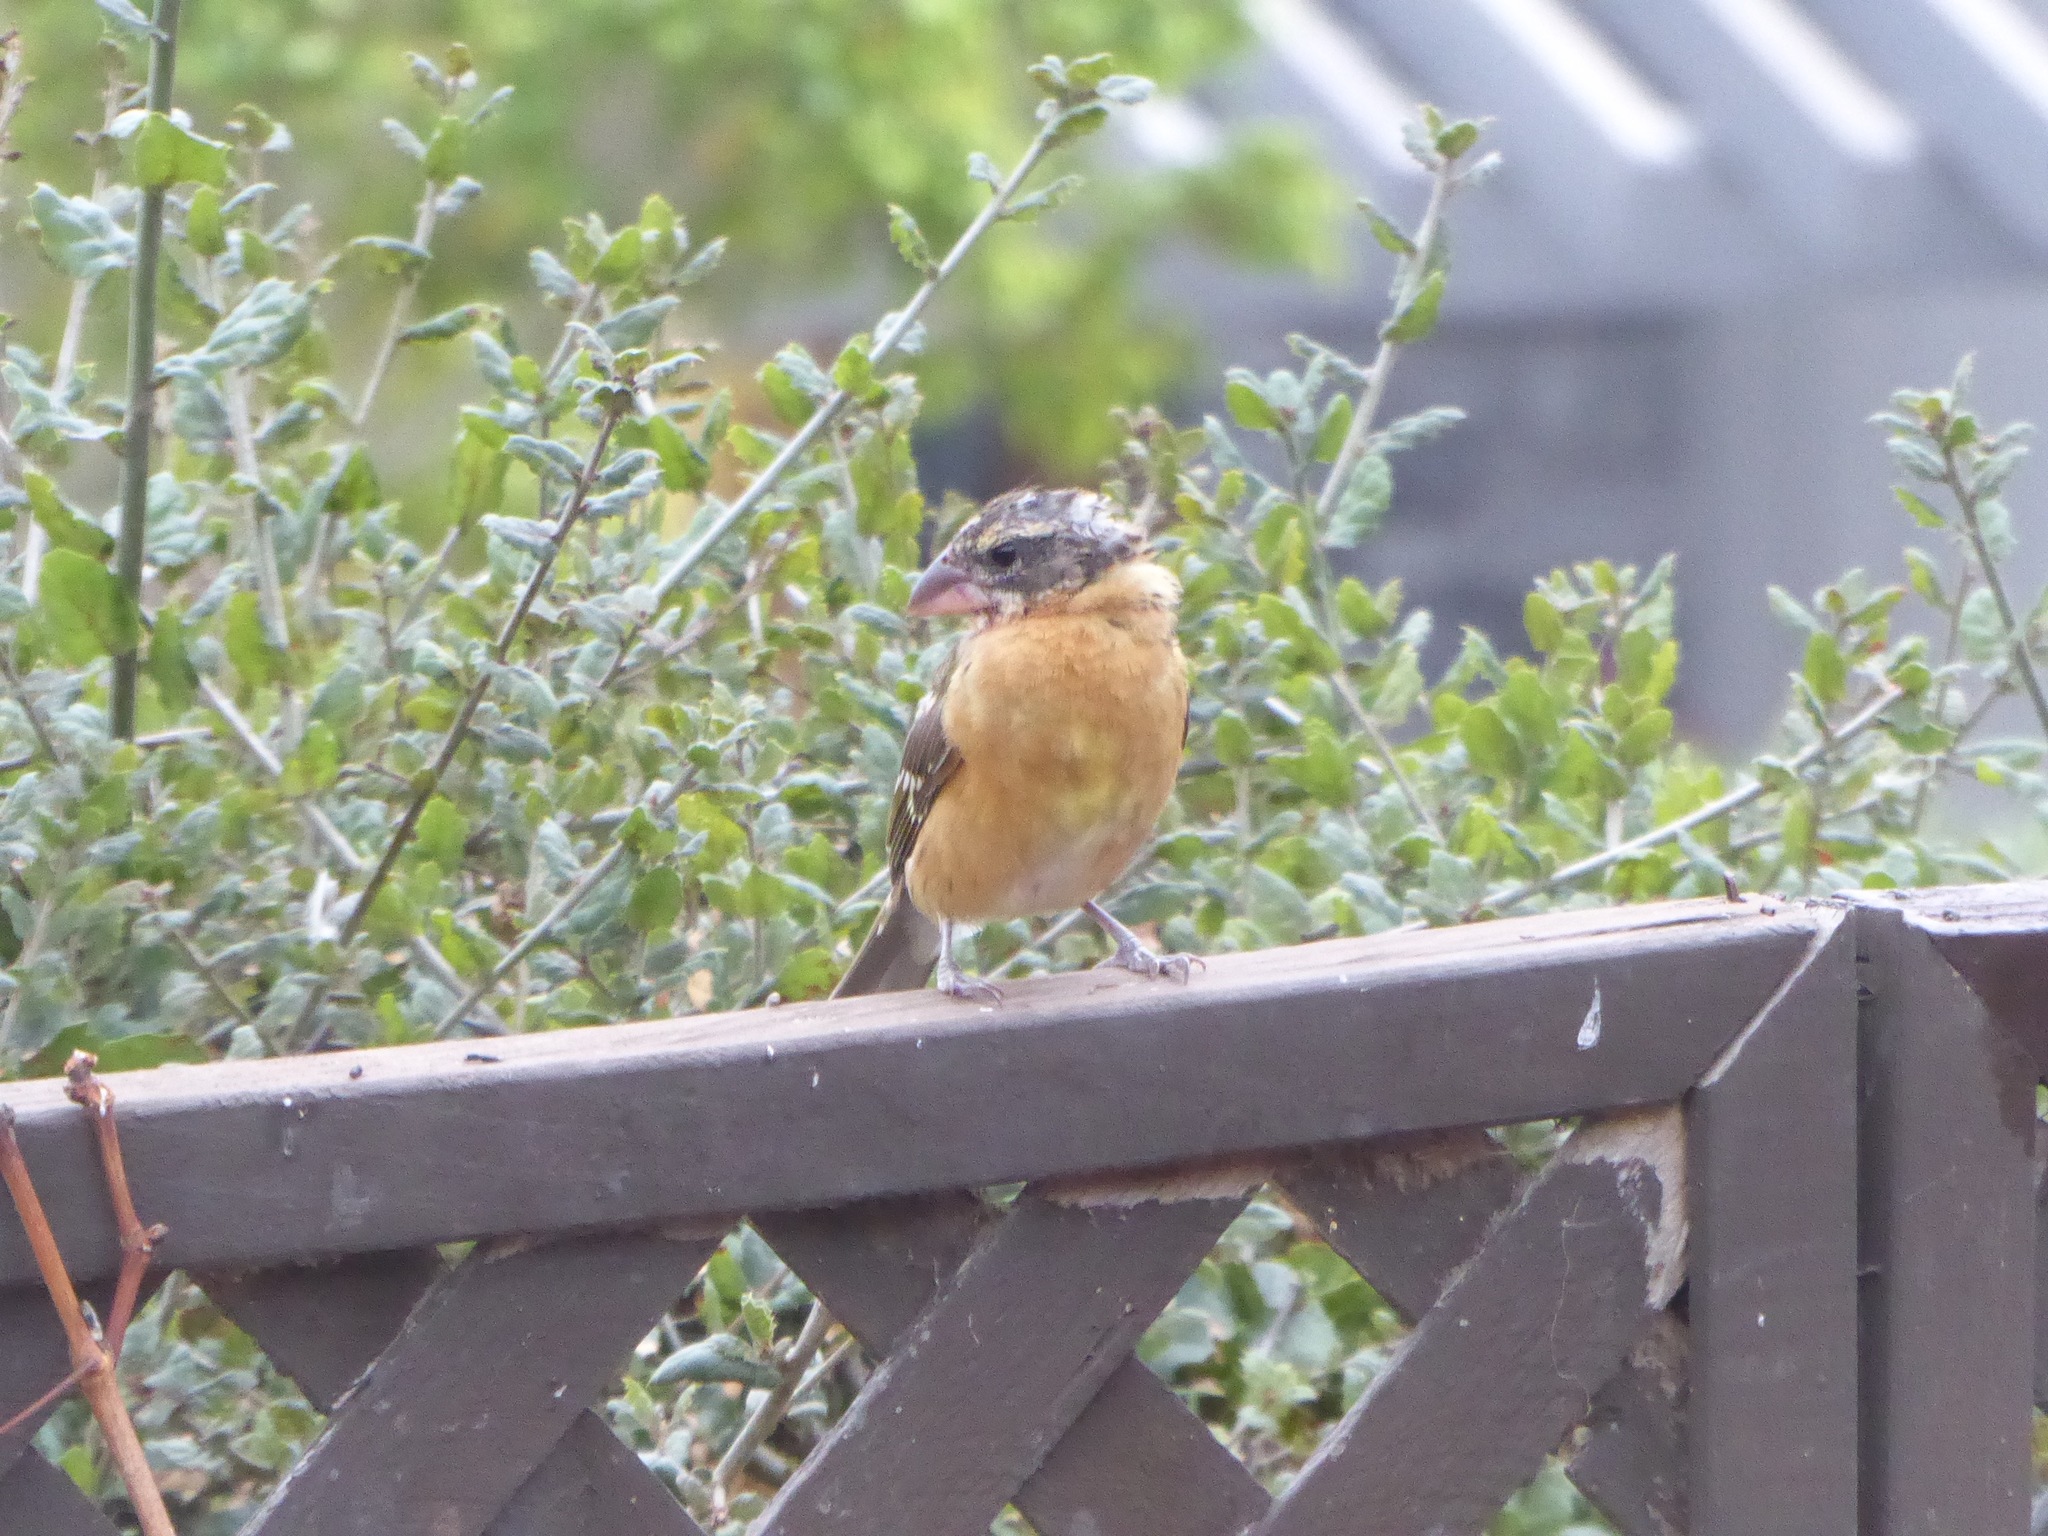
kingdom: Animalia
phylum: Chordata
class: Aves
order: Passeriformes
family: Cardinalidae
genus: Pheucticus
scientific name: Pheucticus melanocephalus
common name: Black-headed grosbeak
